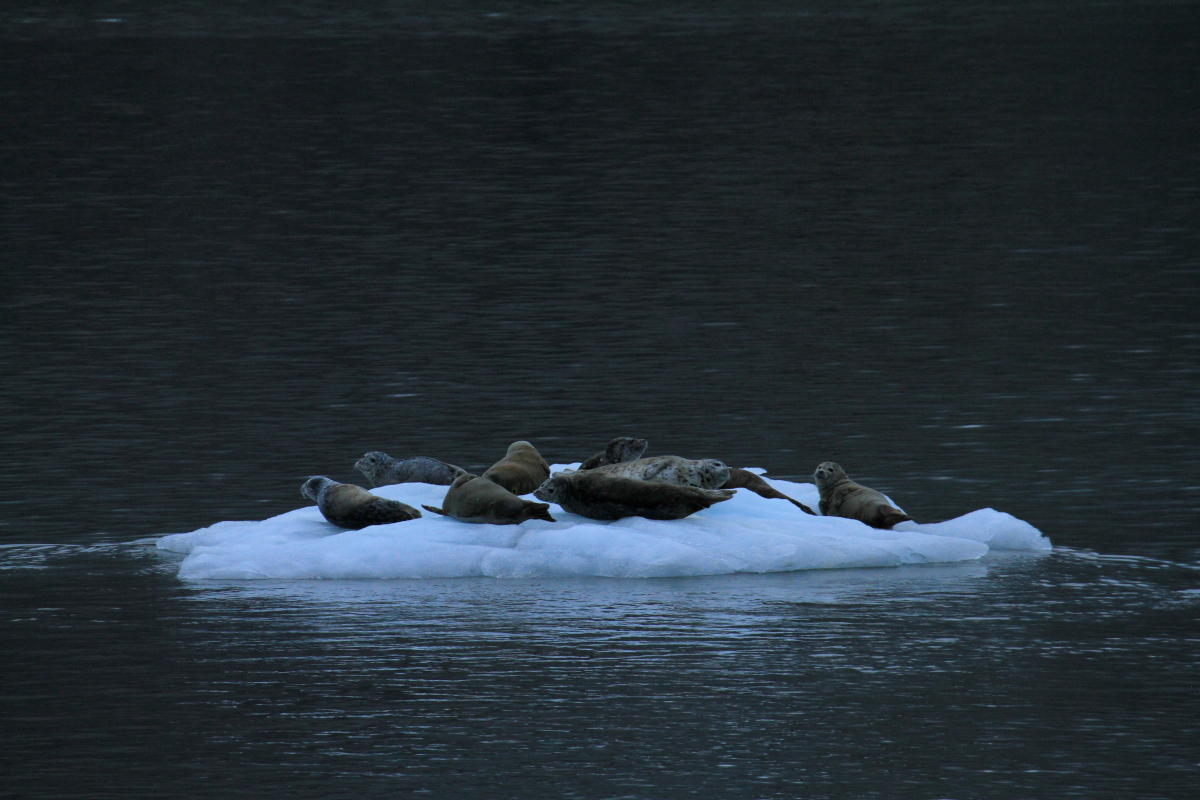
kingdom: Animalia
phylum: Chordata
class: Mammalia
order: Carnivora
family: Phocidae
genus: Phoca
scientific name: Phoca vitulina
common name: Harbor seal
